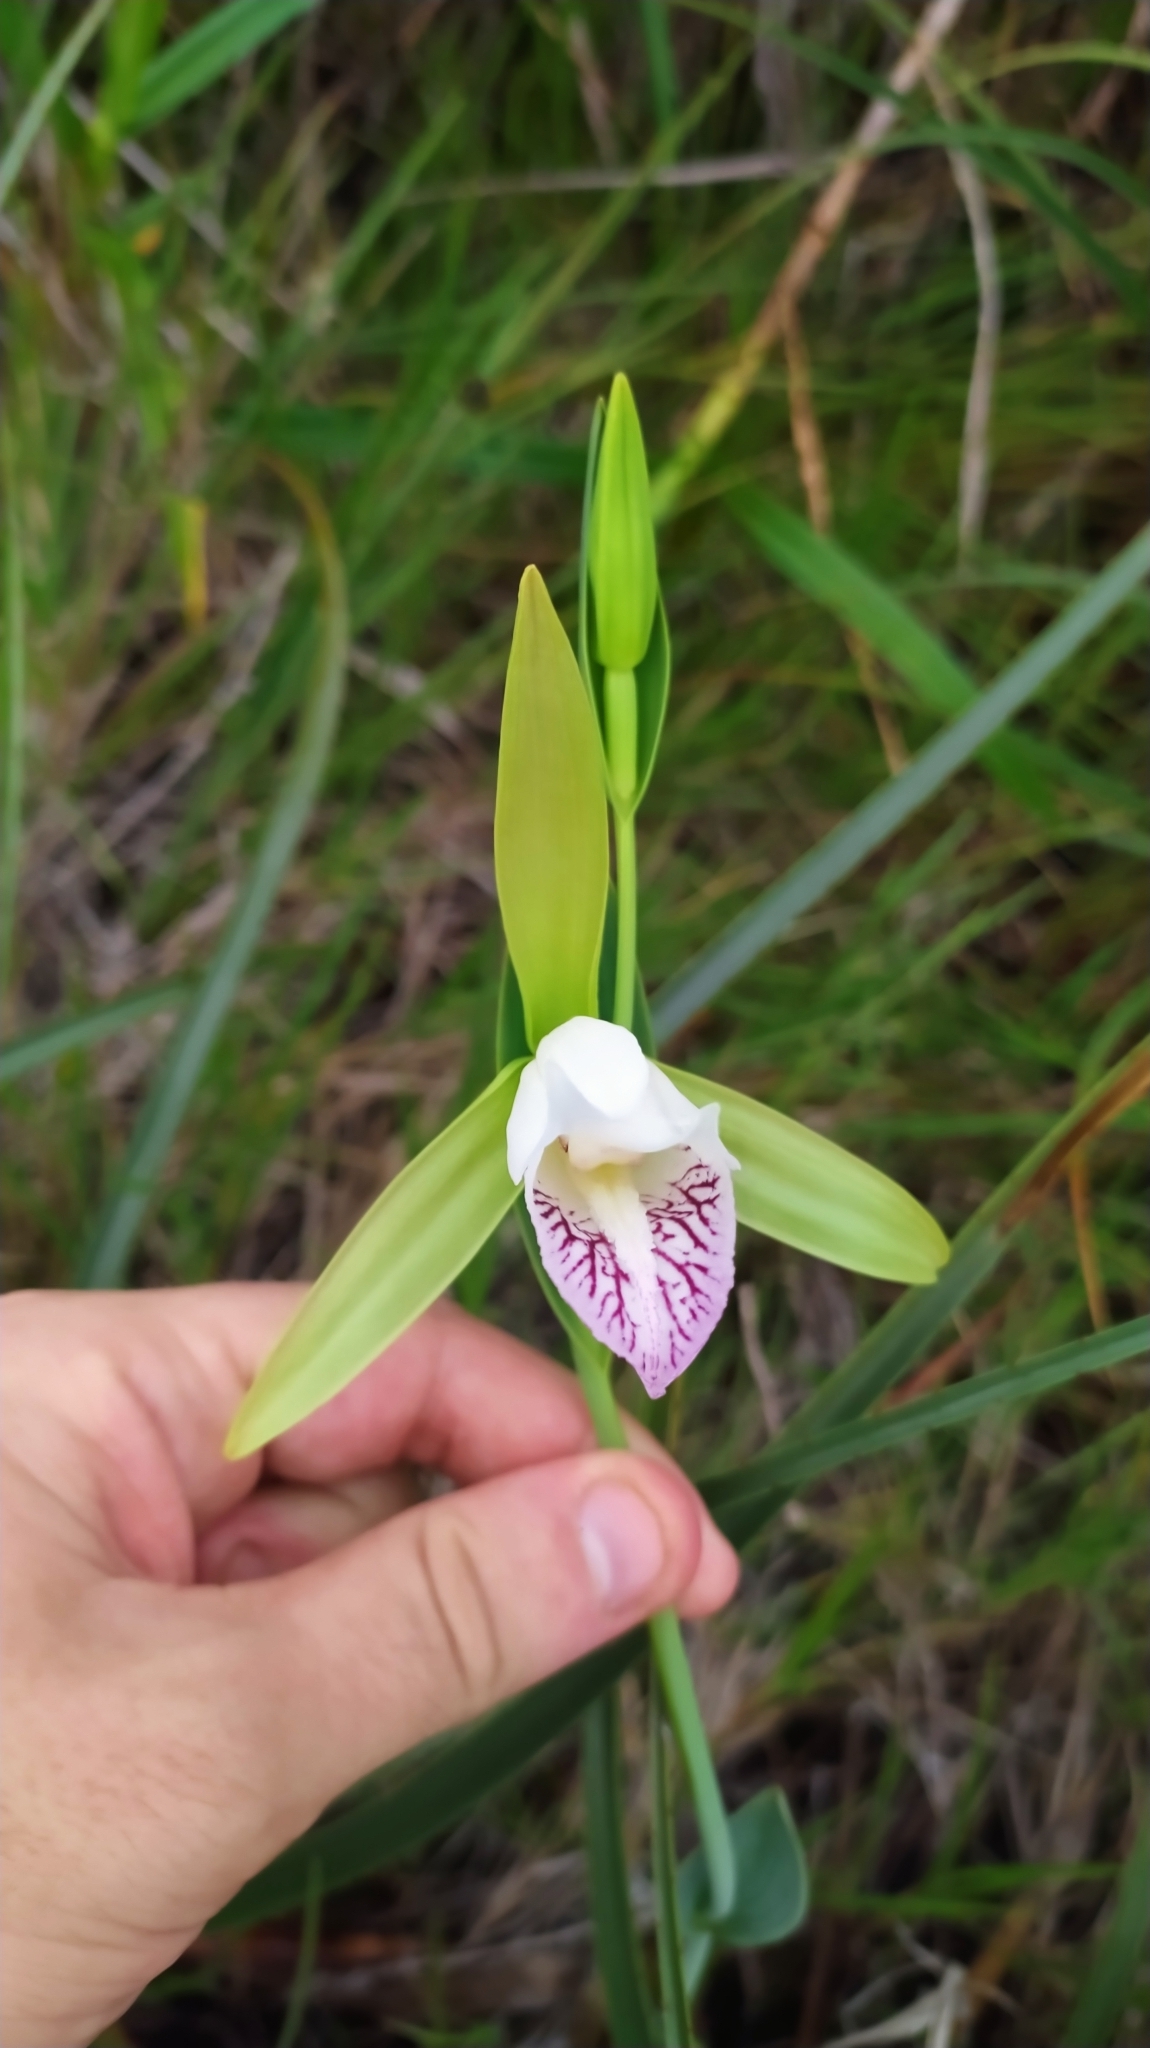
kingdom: Plantae
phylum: Tracheophyta
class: Liliopsida
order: Asparagales
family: Orchidaceae
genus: Cleistes
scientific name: Cleistes grandiflora
